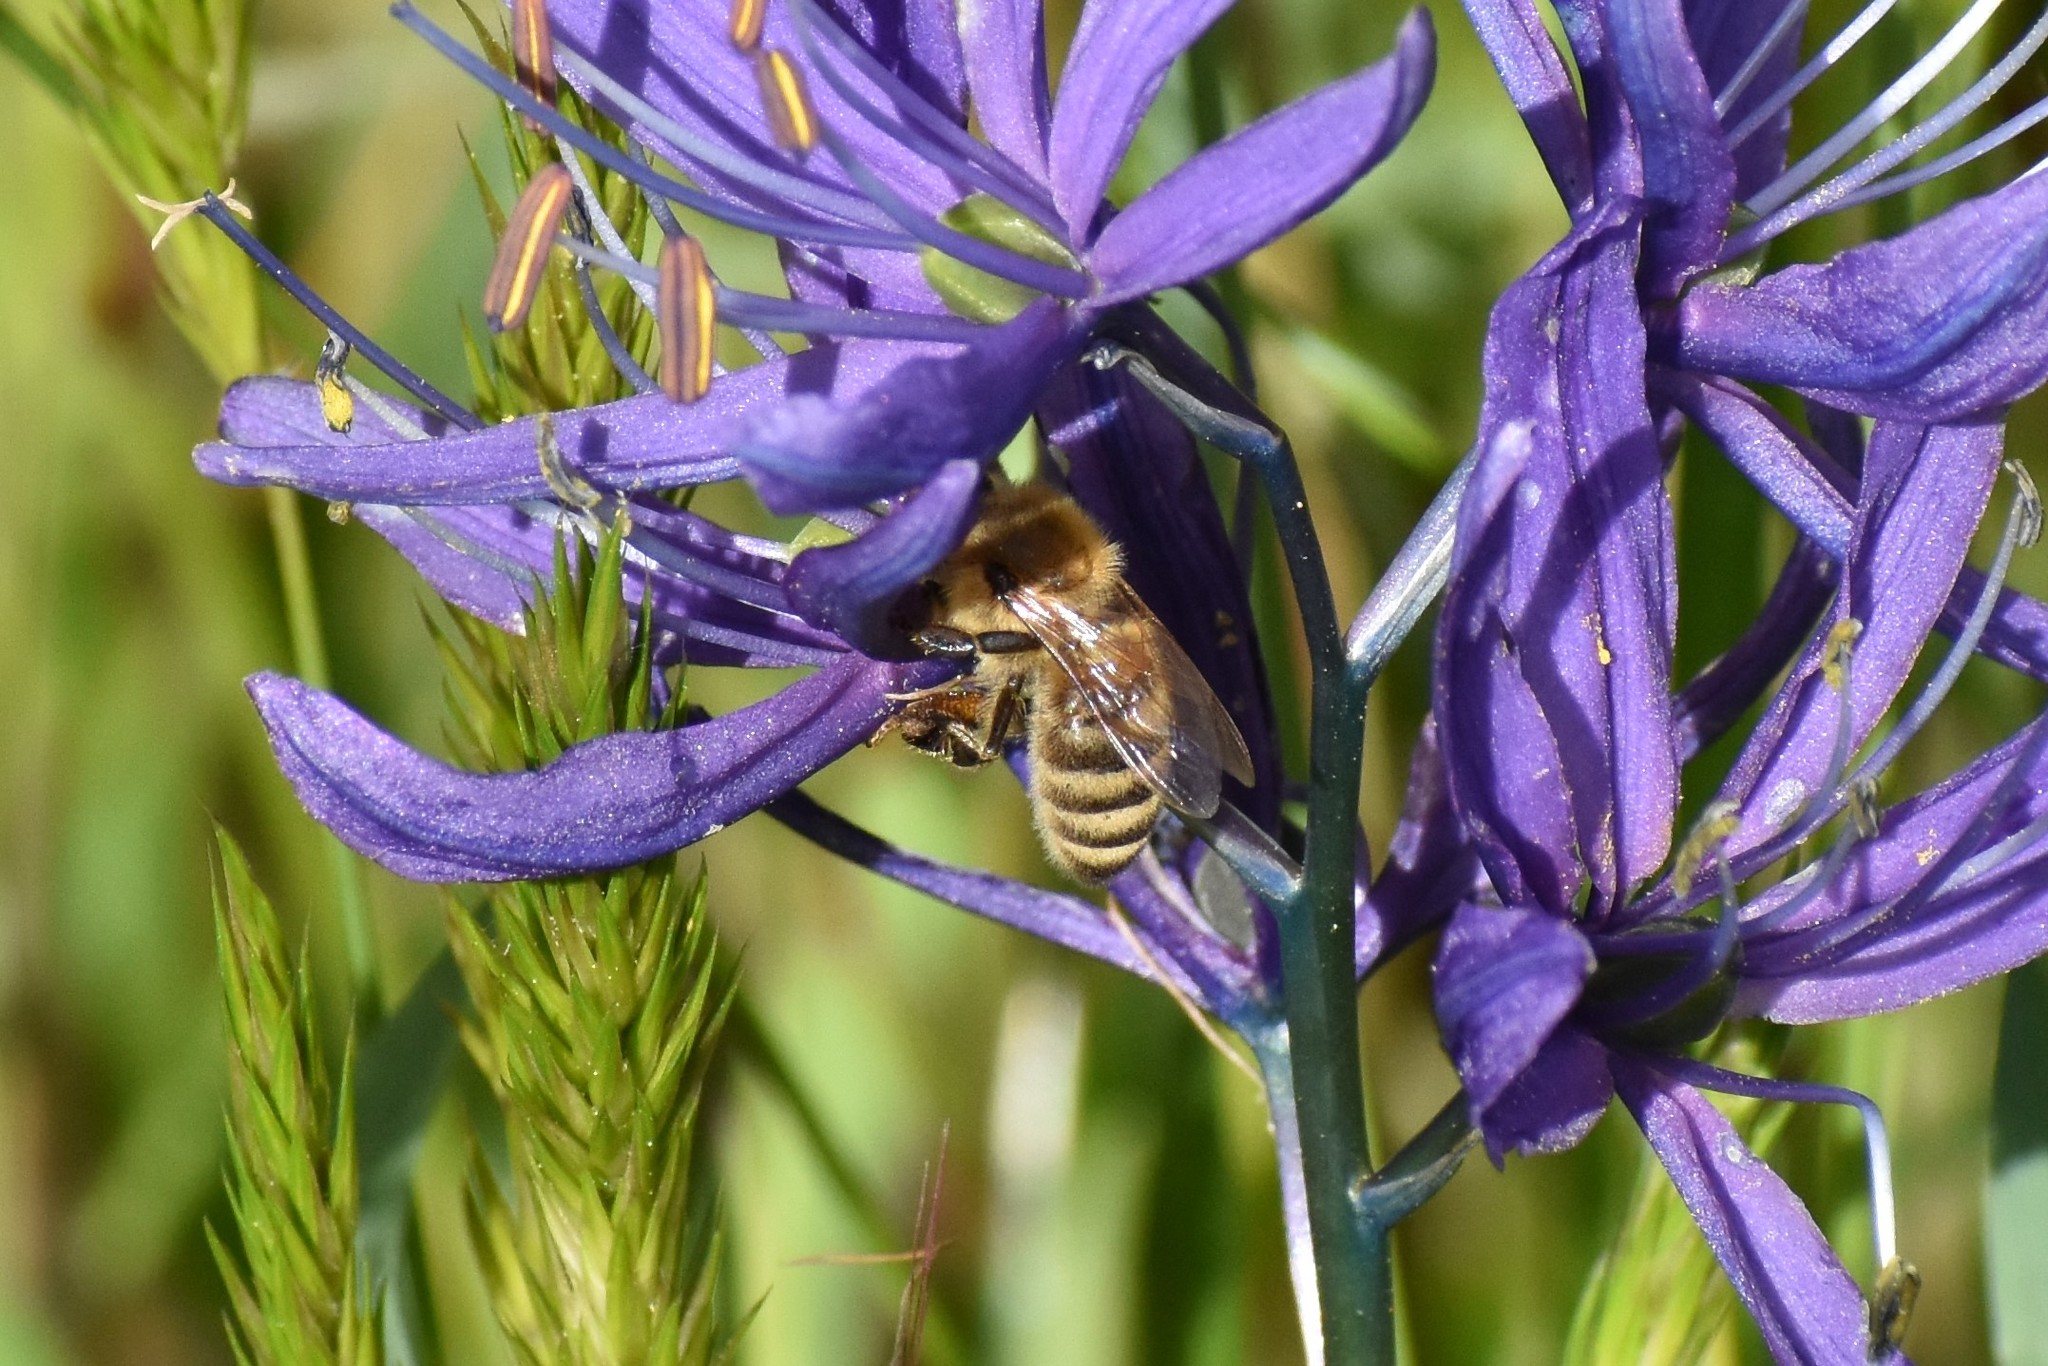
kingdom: Animalia
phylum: Arthropoda
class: Insecta
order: Hymenoptera
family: Apidae
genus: Apis
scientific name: Apis mellifera
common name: Honey bee
